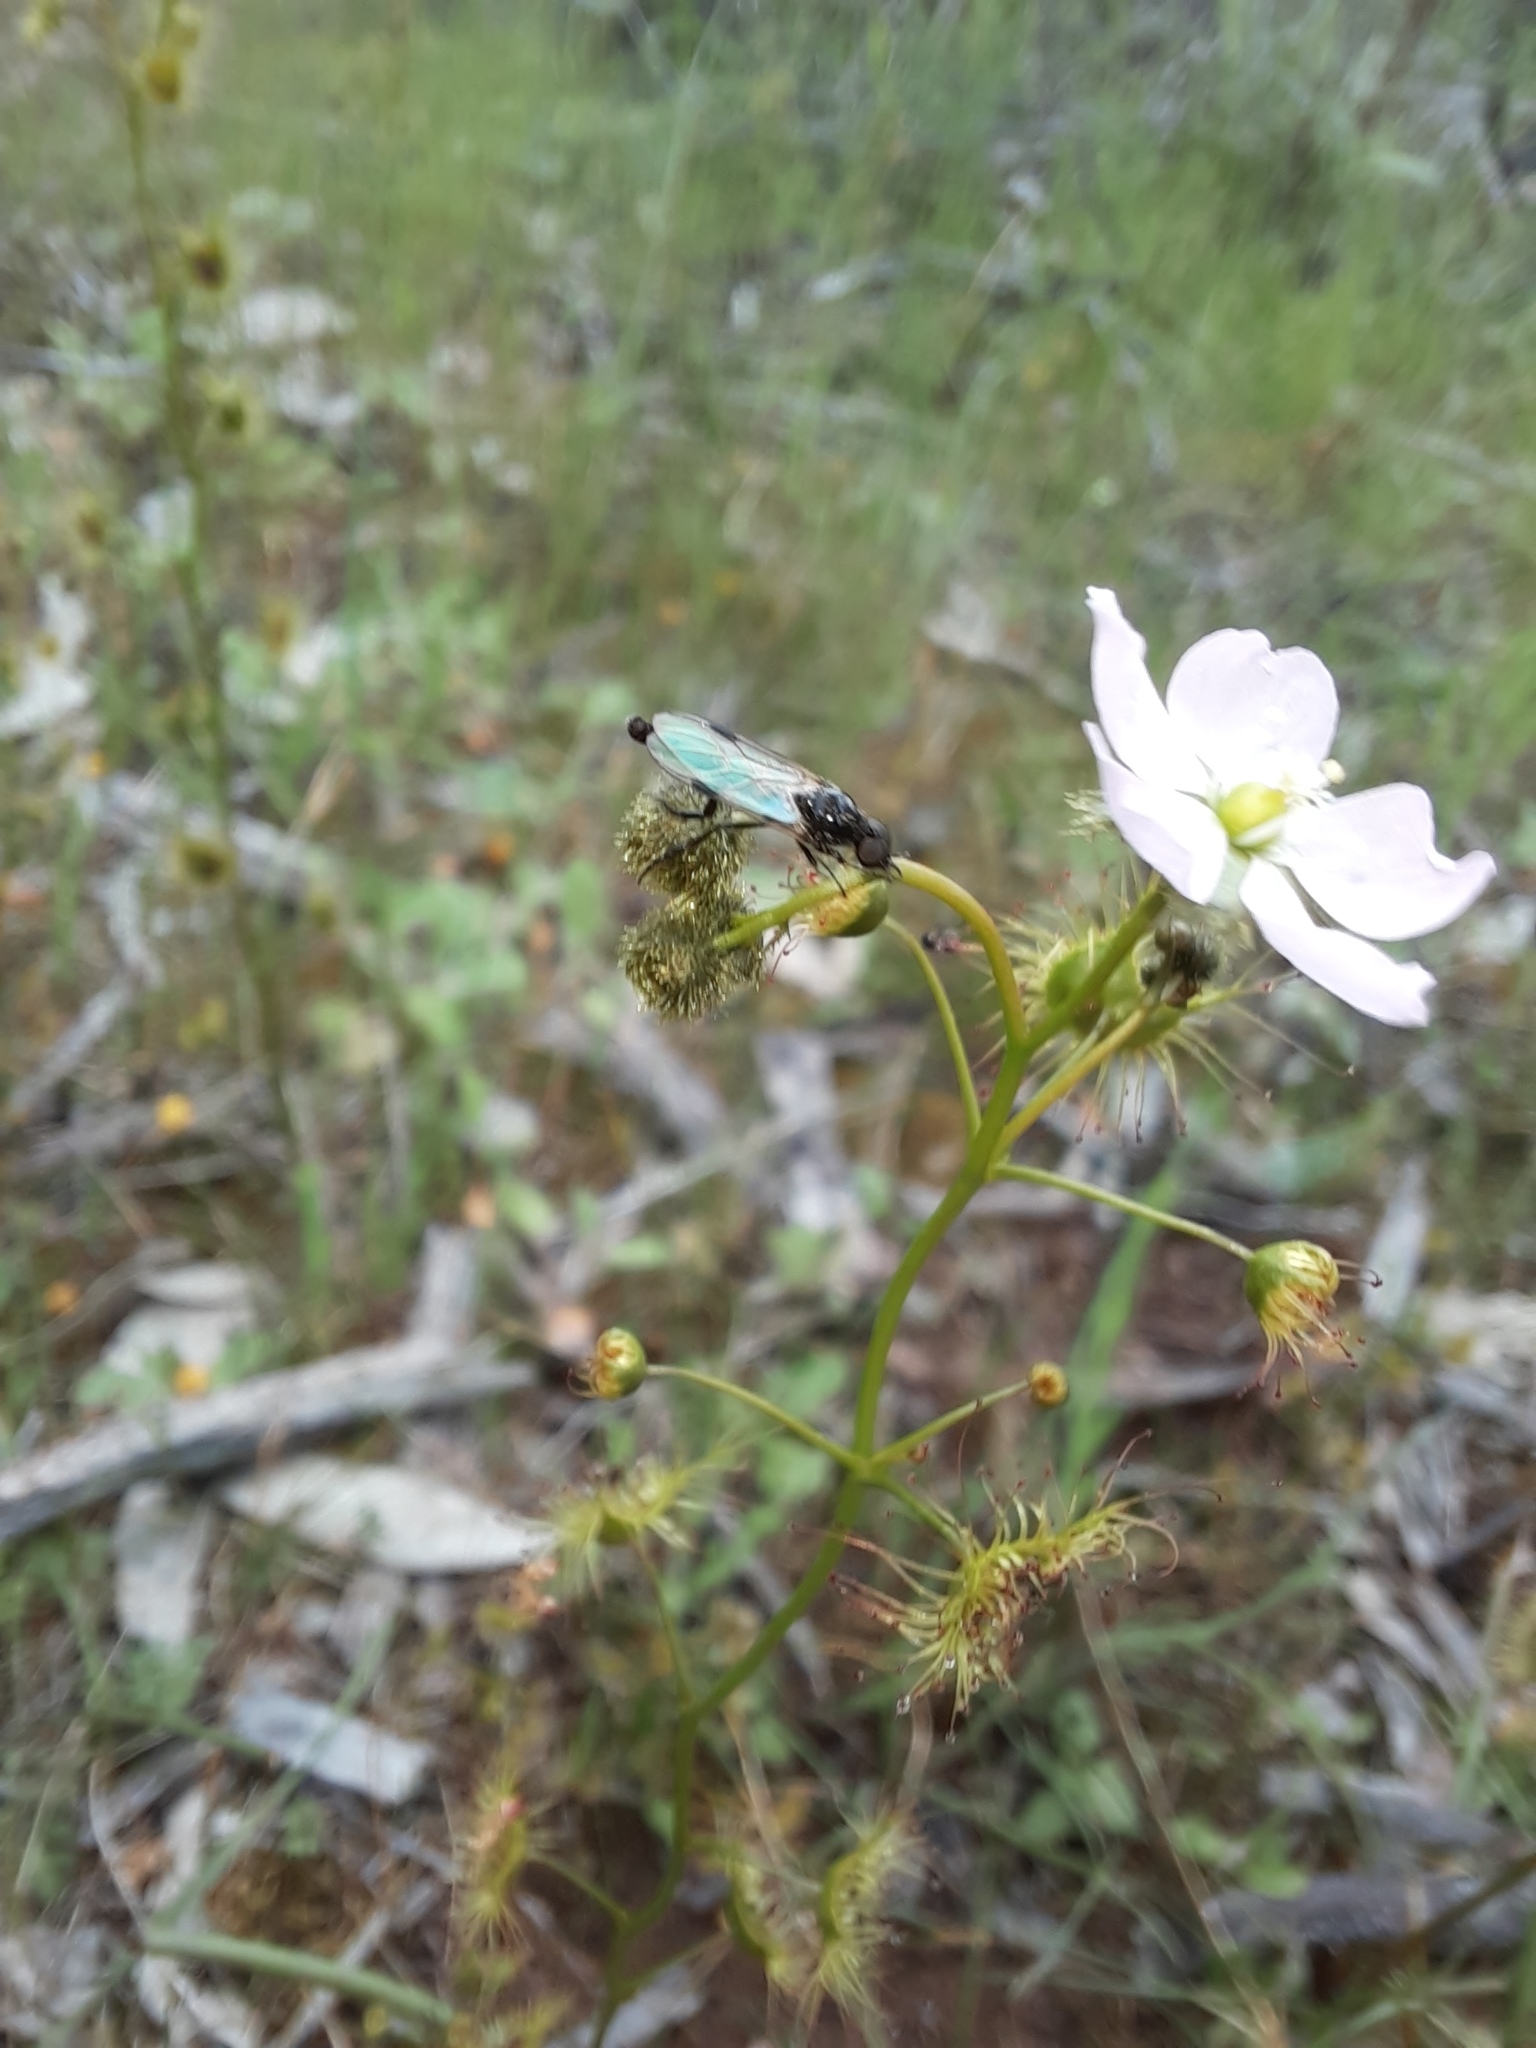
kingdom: Plantae
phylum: Tracheophyta
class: Magnoliopsida
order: Caryophyllales
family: Droseraceae
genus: Drosera
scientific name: Drosera gunniana
